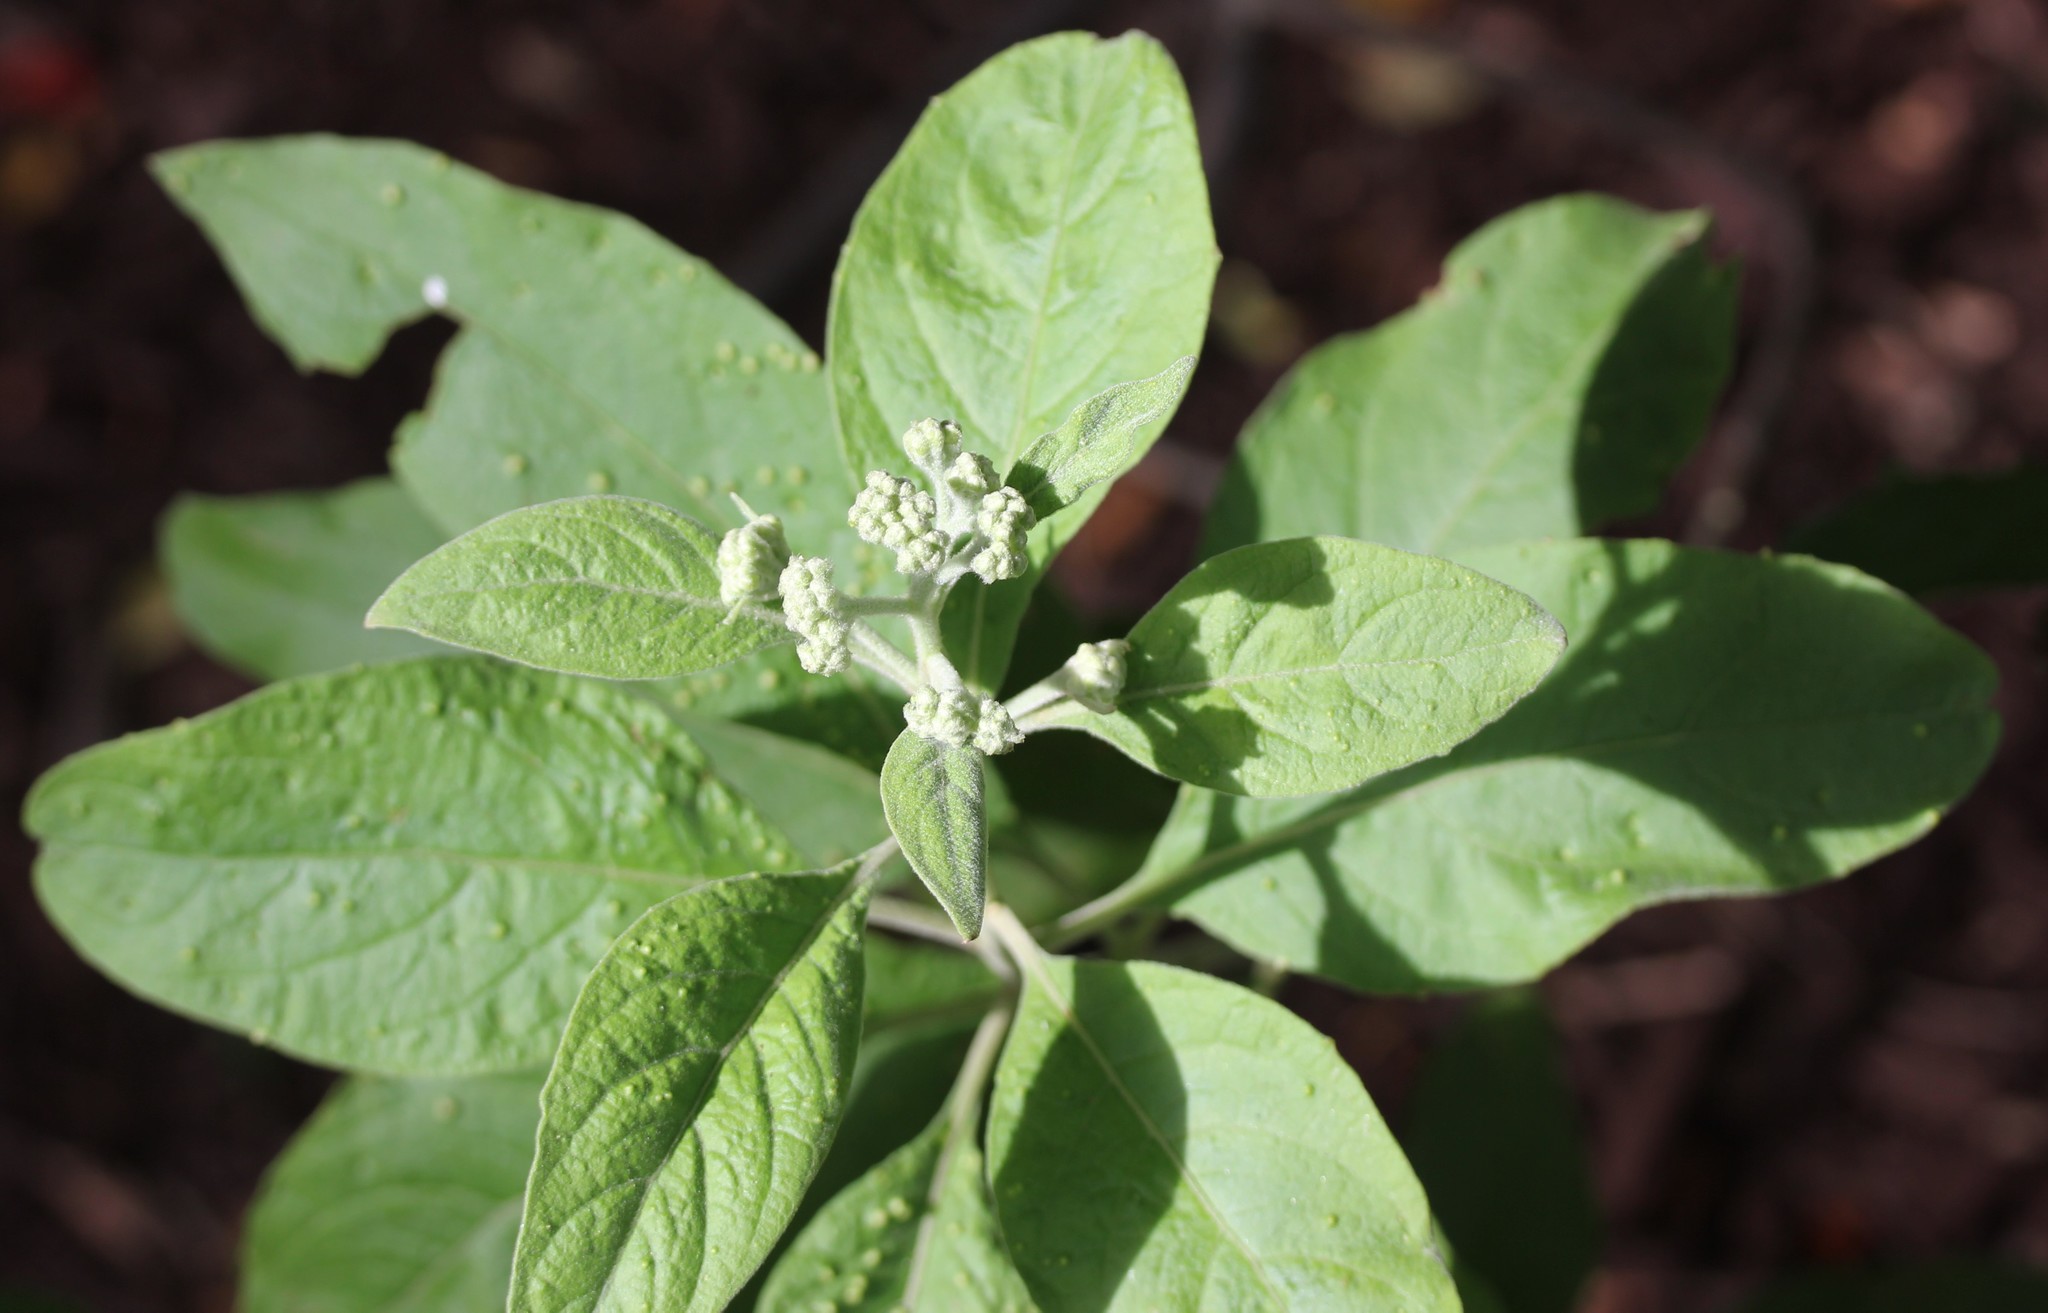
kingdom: Plantae
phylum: Tracheophyta
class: Magnoliopsida
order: Asterales
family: Asteraceae
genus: Pluchea
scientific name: Pluchea carolinensis
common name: Marsh fleabane
